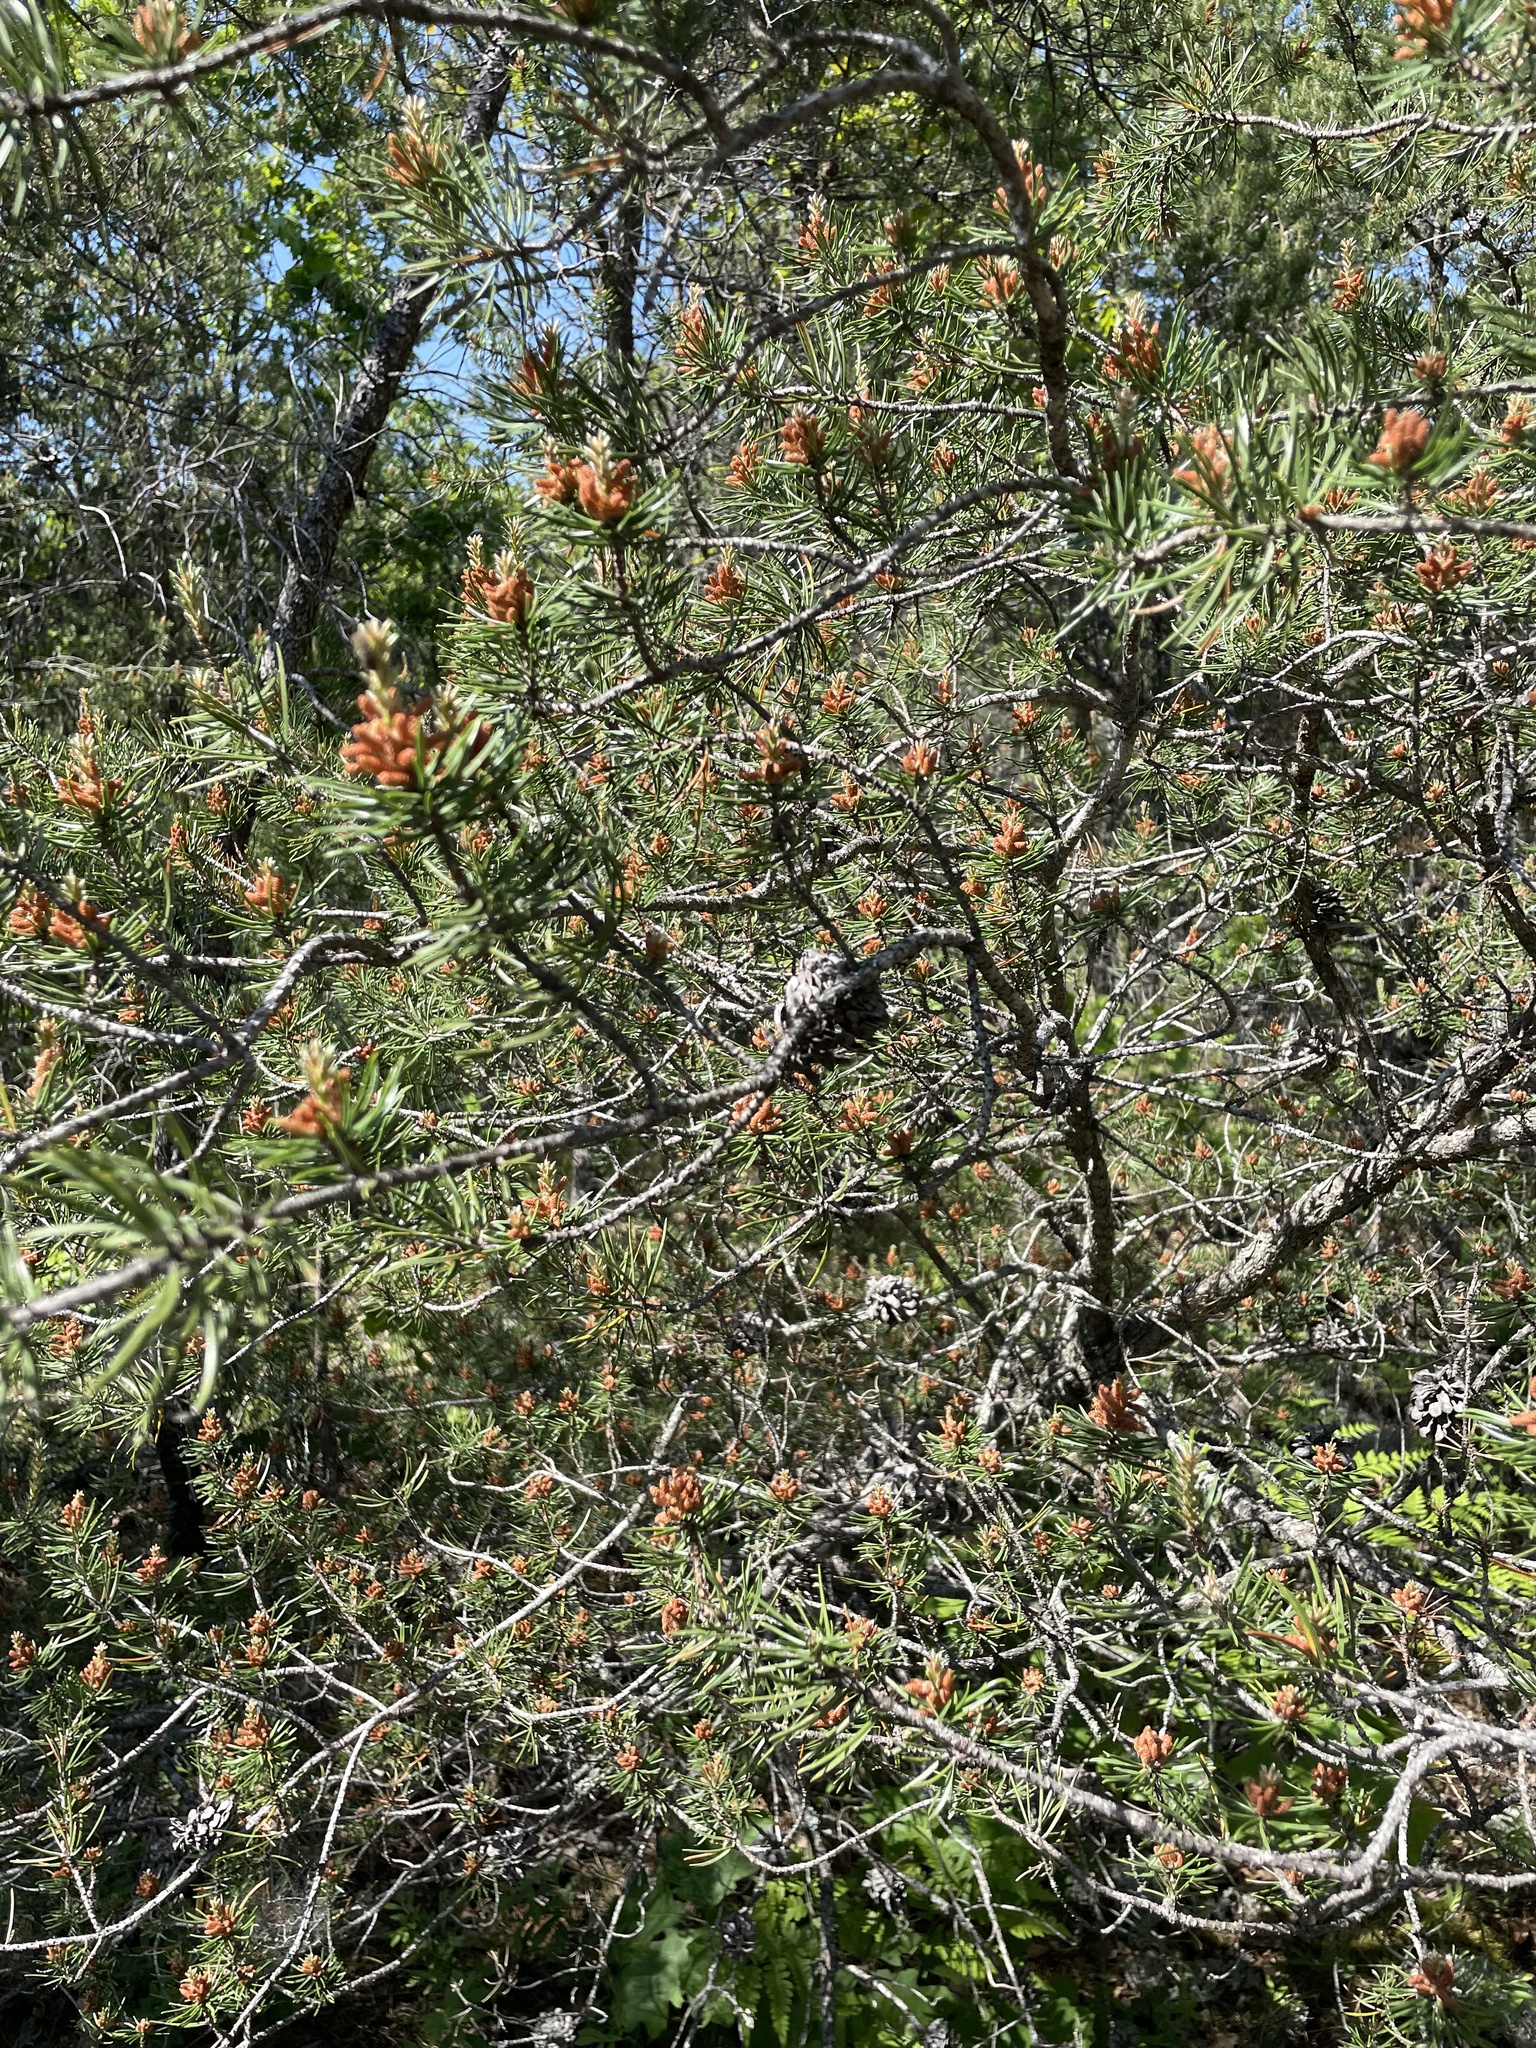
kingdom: Plantae
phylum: Tracheophyta
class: Pinopsida
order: Pinales
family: Pinaceae
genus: Pinus
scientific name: Pinus banksiana
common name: Jack pine
